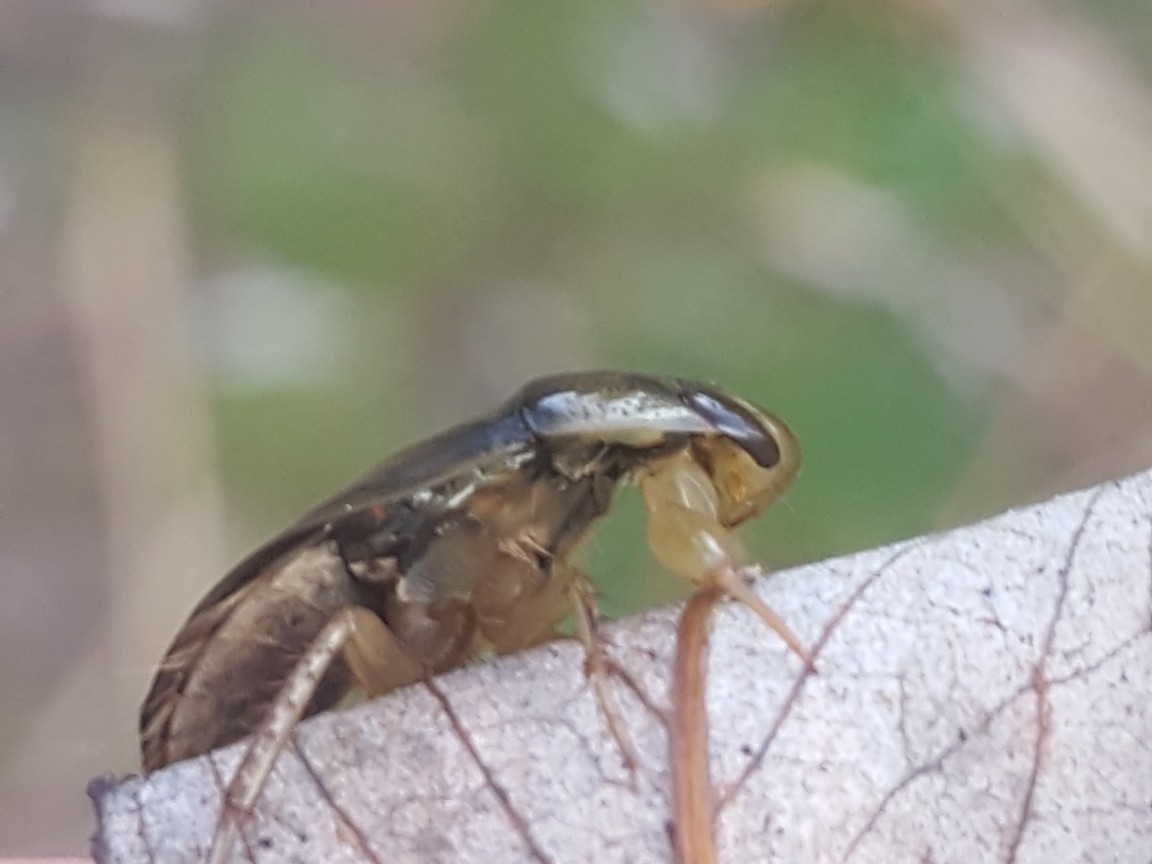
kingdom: Animalia
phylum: Arthropoda
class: Insecta
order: Hemiptera
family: Naucoridae
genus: Ilyocoris
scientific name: Ilyocoris cimicoides
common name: Saucer bugs
